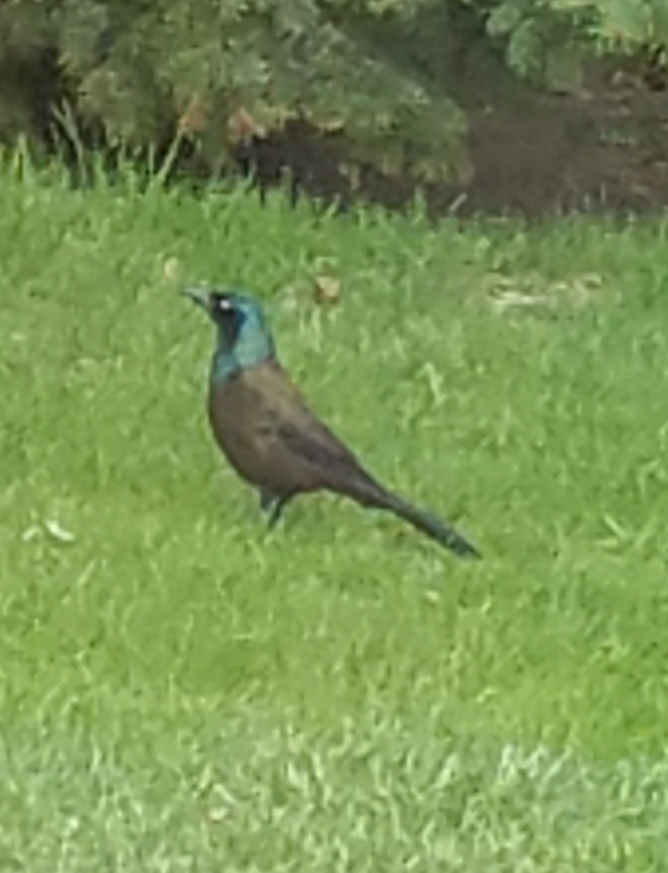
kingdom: Animalia
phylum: Chordata
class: Aves
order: Passeriformes
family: Icteridae
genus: Quiscalus
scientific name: Quiscalus quiscula
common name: Common grackle
